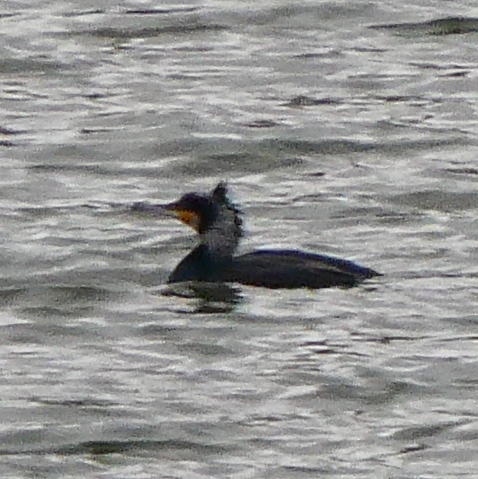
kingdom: Animalia
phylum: Chordata
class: Aves
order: Suliformes
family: Phalacrocoracidae
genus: Phalacrocorax
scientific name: Phalacrocorax carbo
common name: Great cormorant
